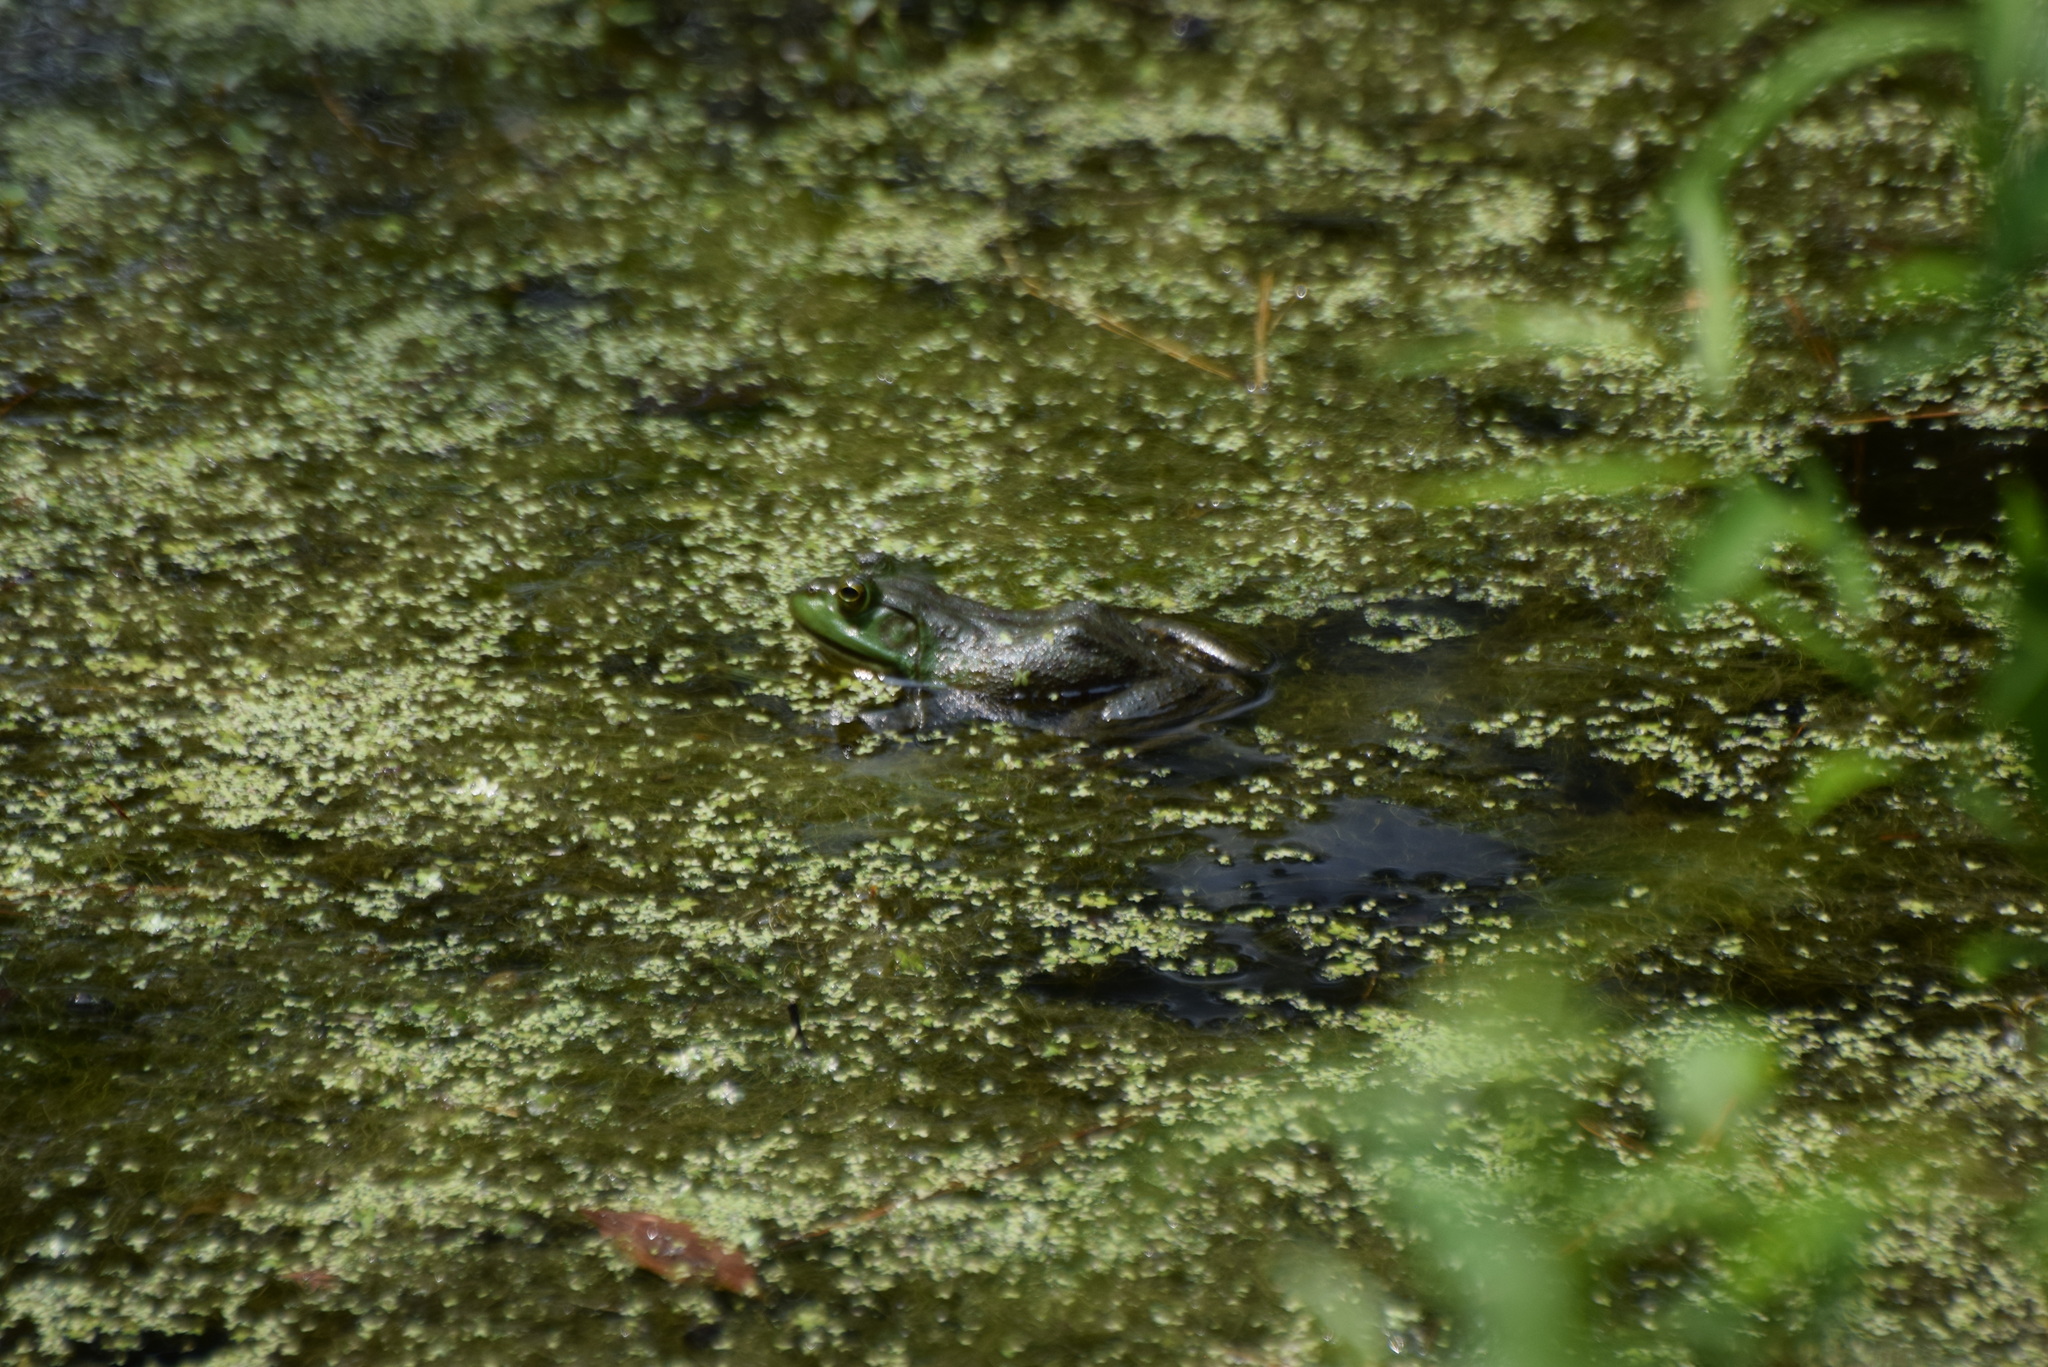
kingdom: Animalia
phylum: Chordata
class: Amphibia
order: Anura
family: Ranidae
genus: Lithobates
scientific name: Lithobates catesbeianus
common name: American bullfrog
